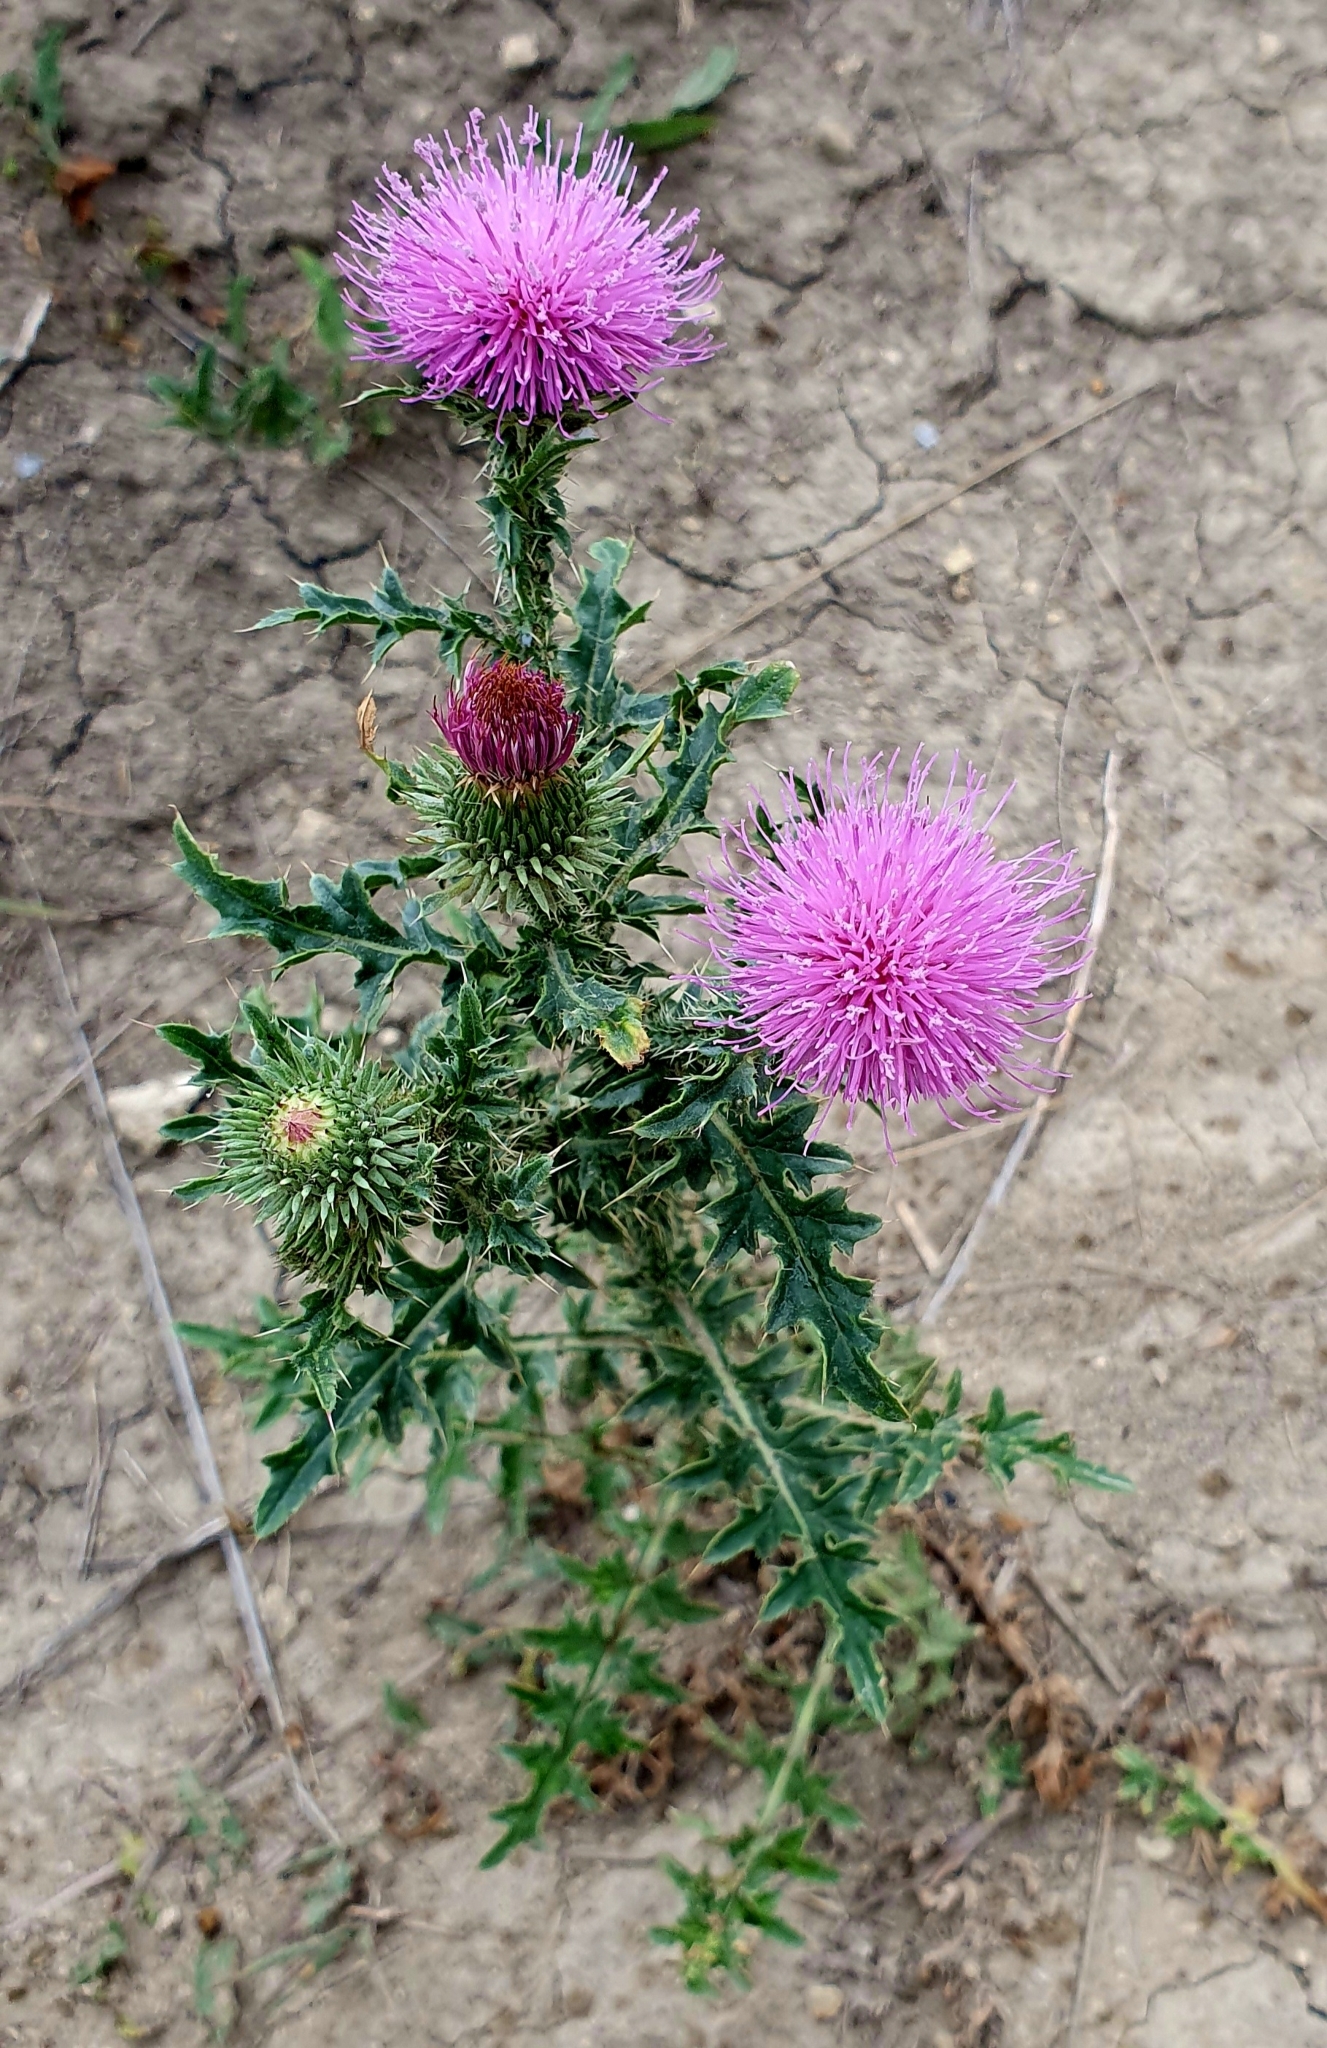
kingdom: Plantae
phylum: Tracheophyta
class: Magnoliopsida
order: Asterales
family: Asteraceae
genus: Carduus
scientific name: Carduus acanthoides
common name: Plumeless thistle
